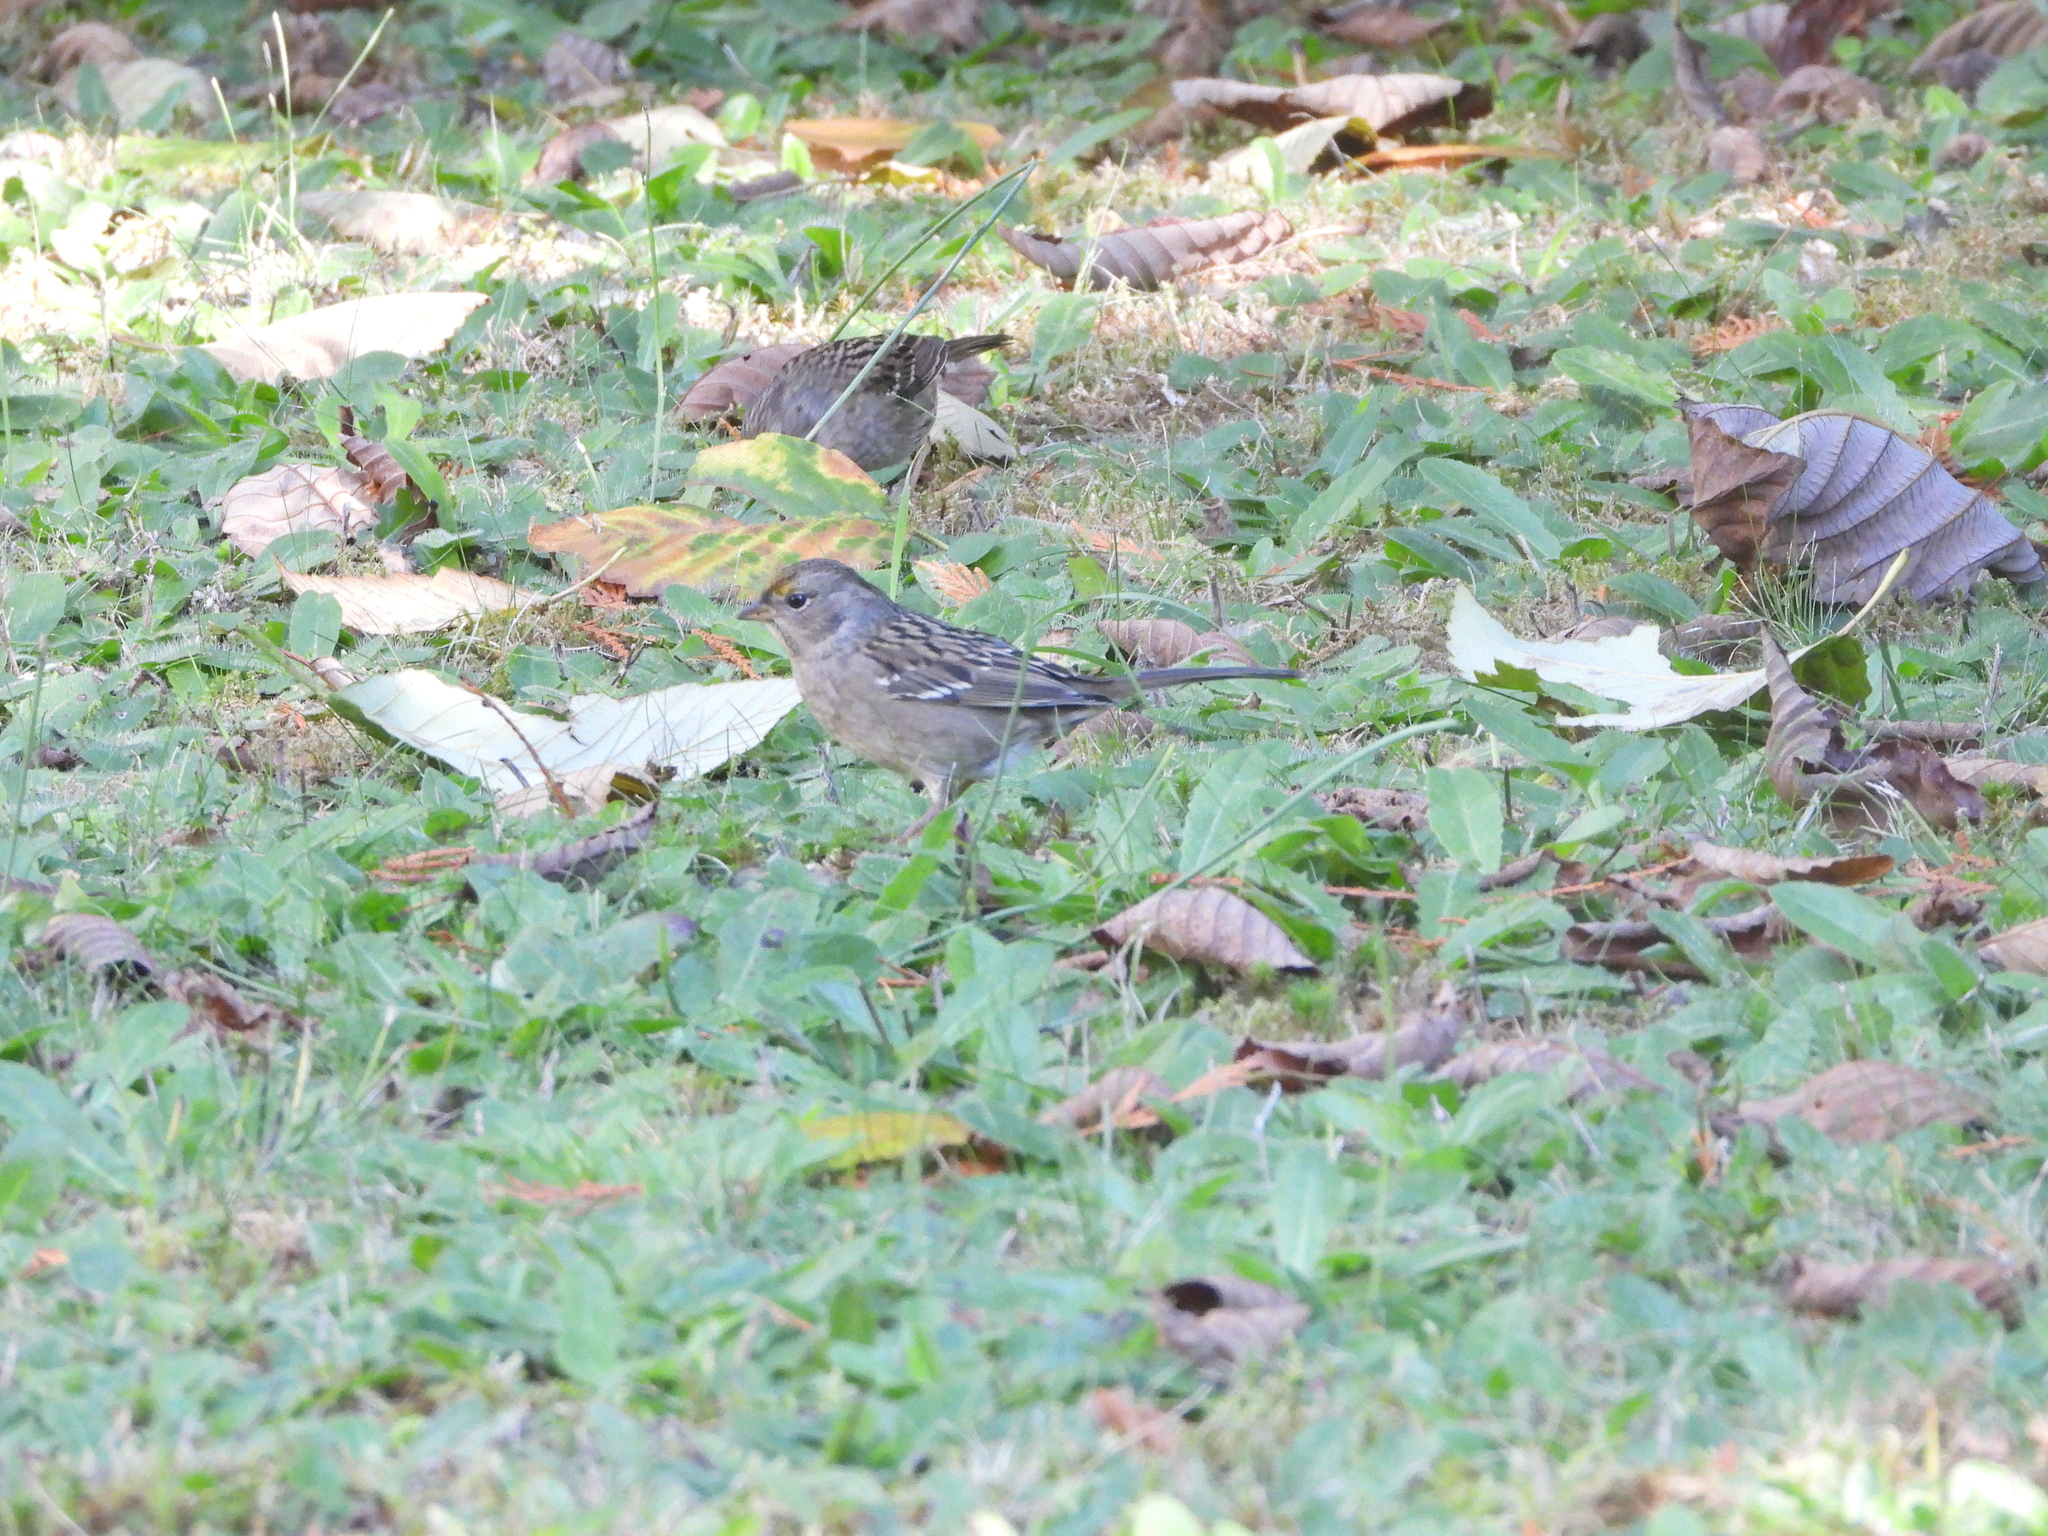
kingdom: Animalia
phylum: Chordata
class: Aves
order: Passeriformes
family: Passerellidae
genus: Zonotrichia
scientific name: Zonotrichia atricapilla
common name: Golden-crowned sparrow
